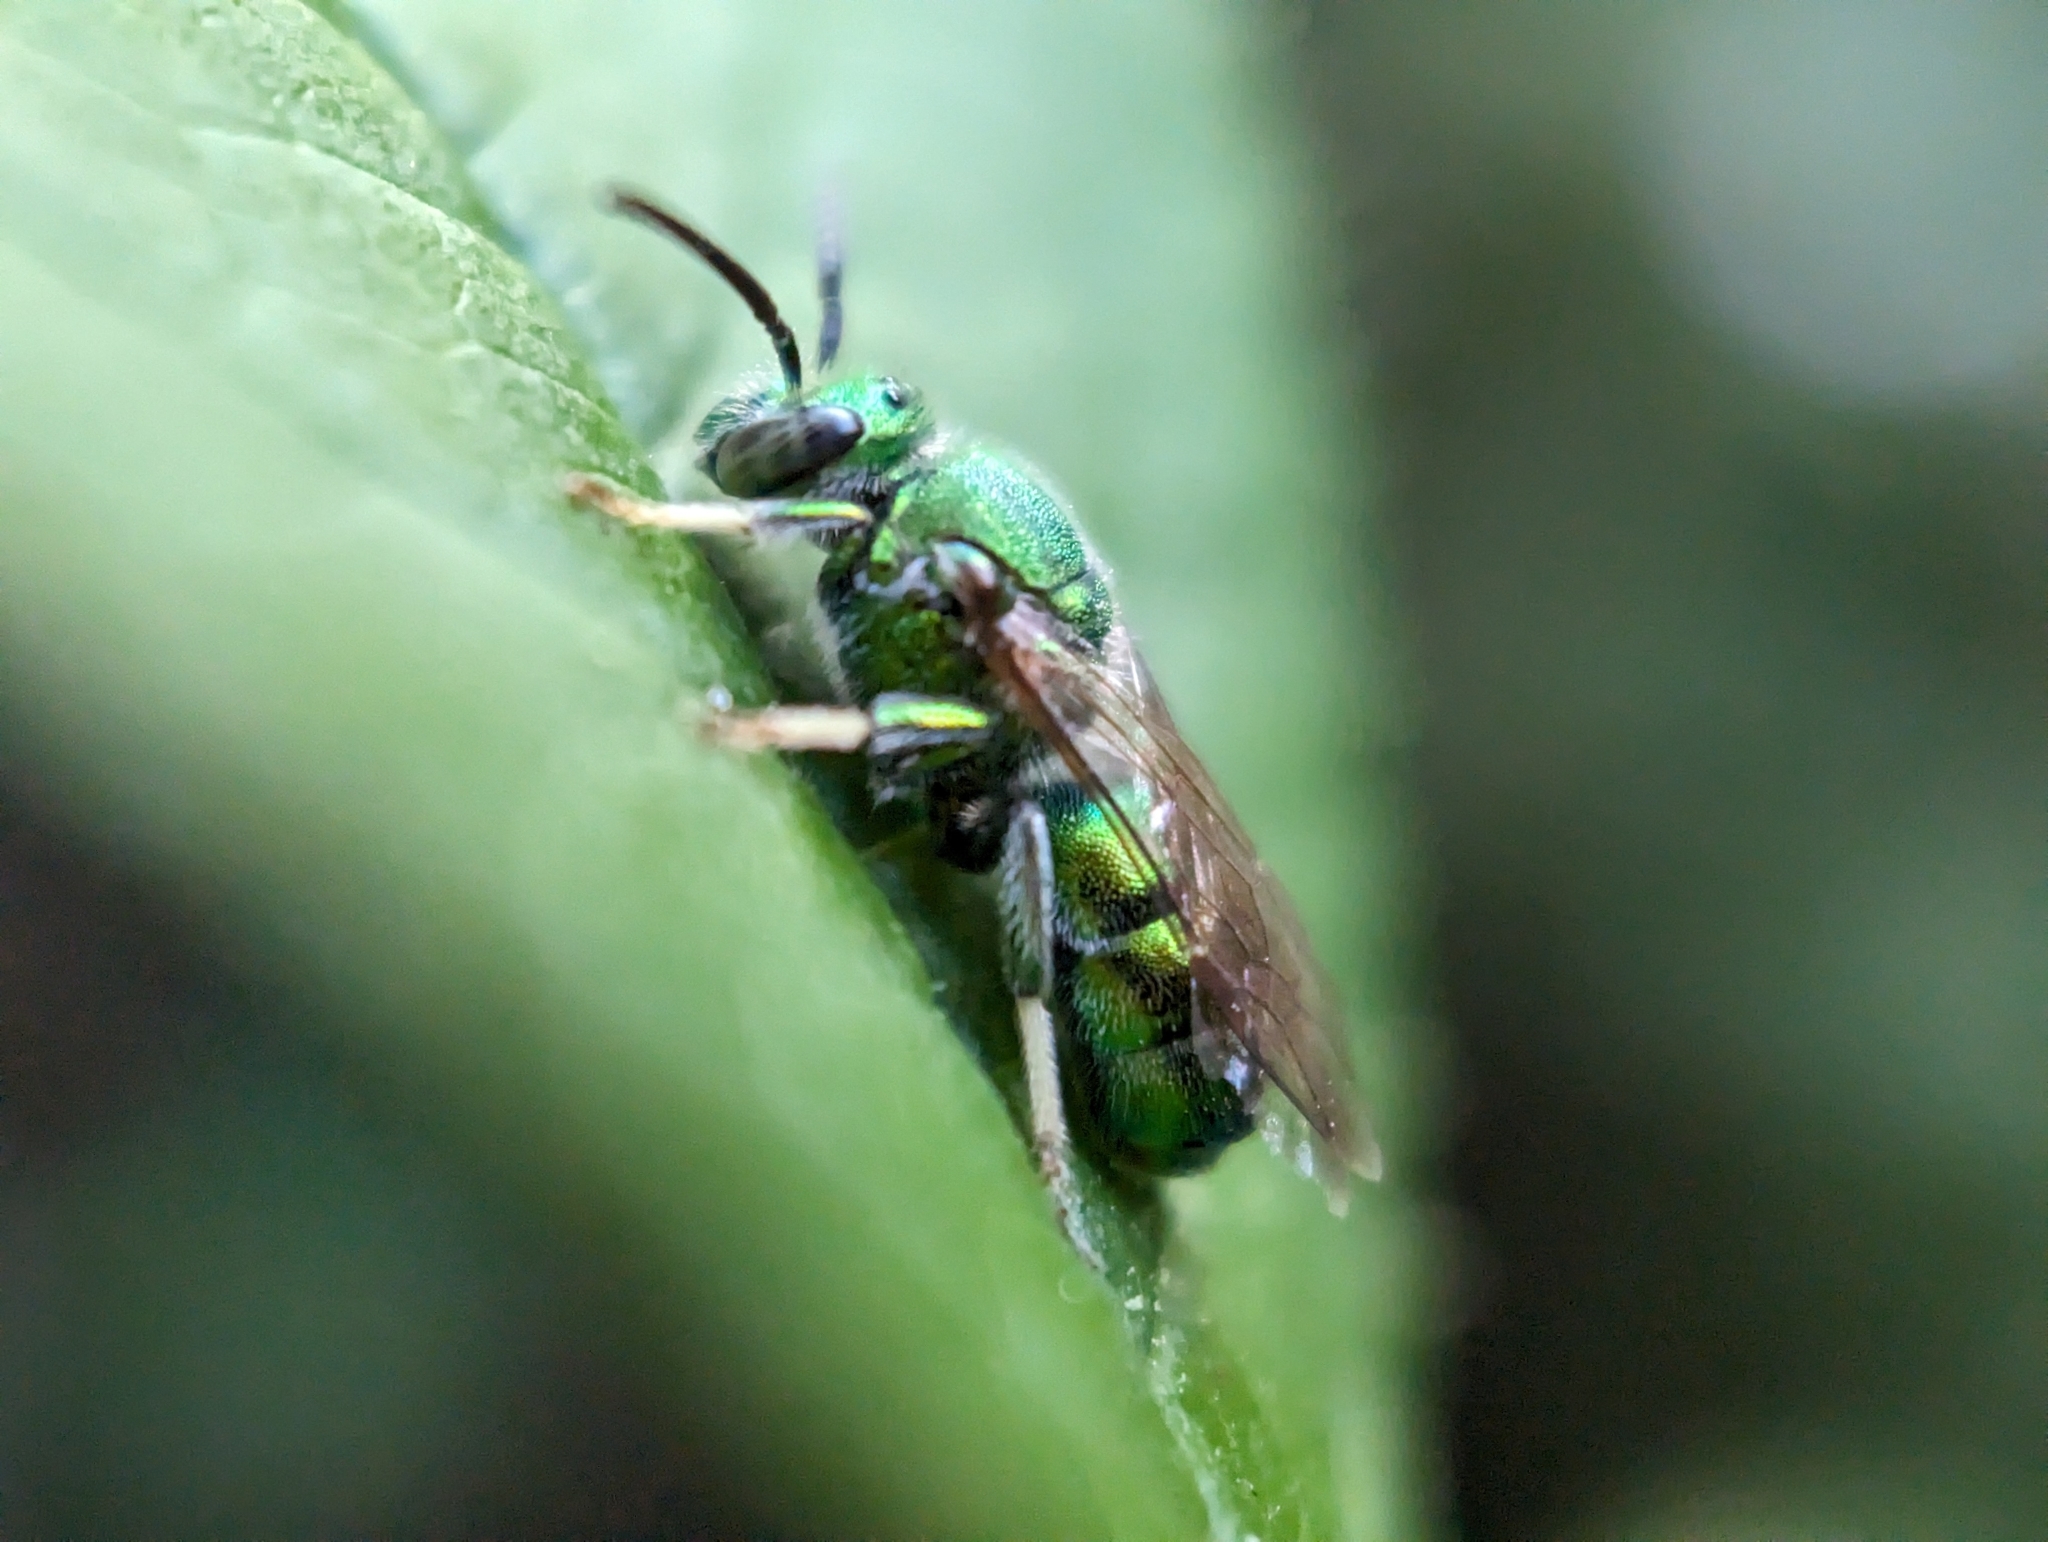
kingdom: Animalia
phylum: Arthropoda
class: Insecta
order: Hymenoptera
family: Halictidae
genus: Augochloropsis
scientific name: Augochloropsis viridula
